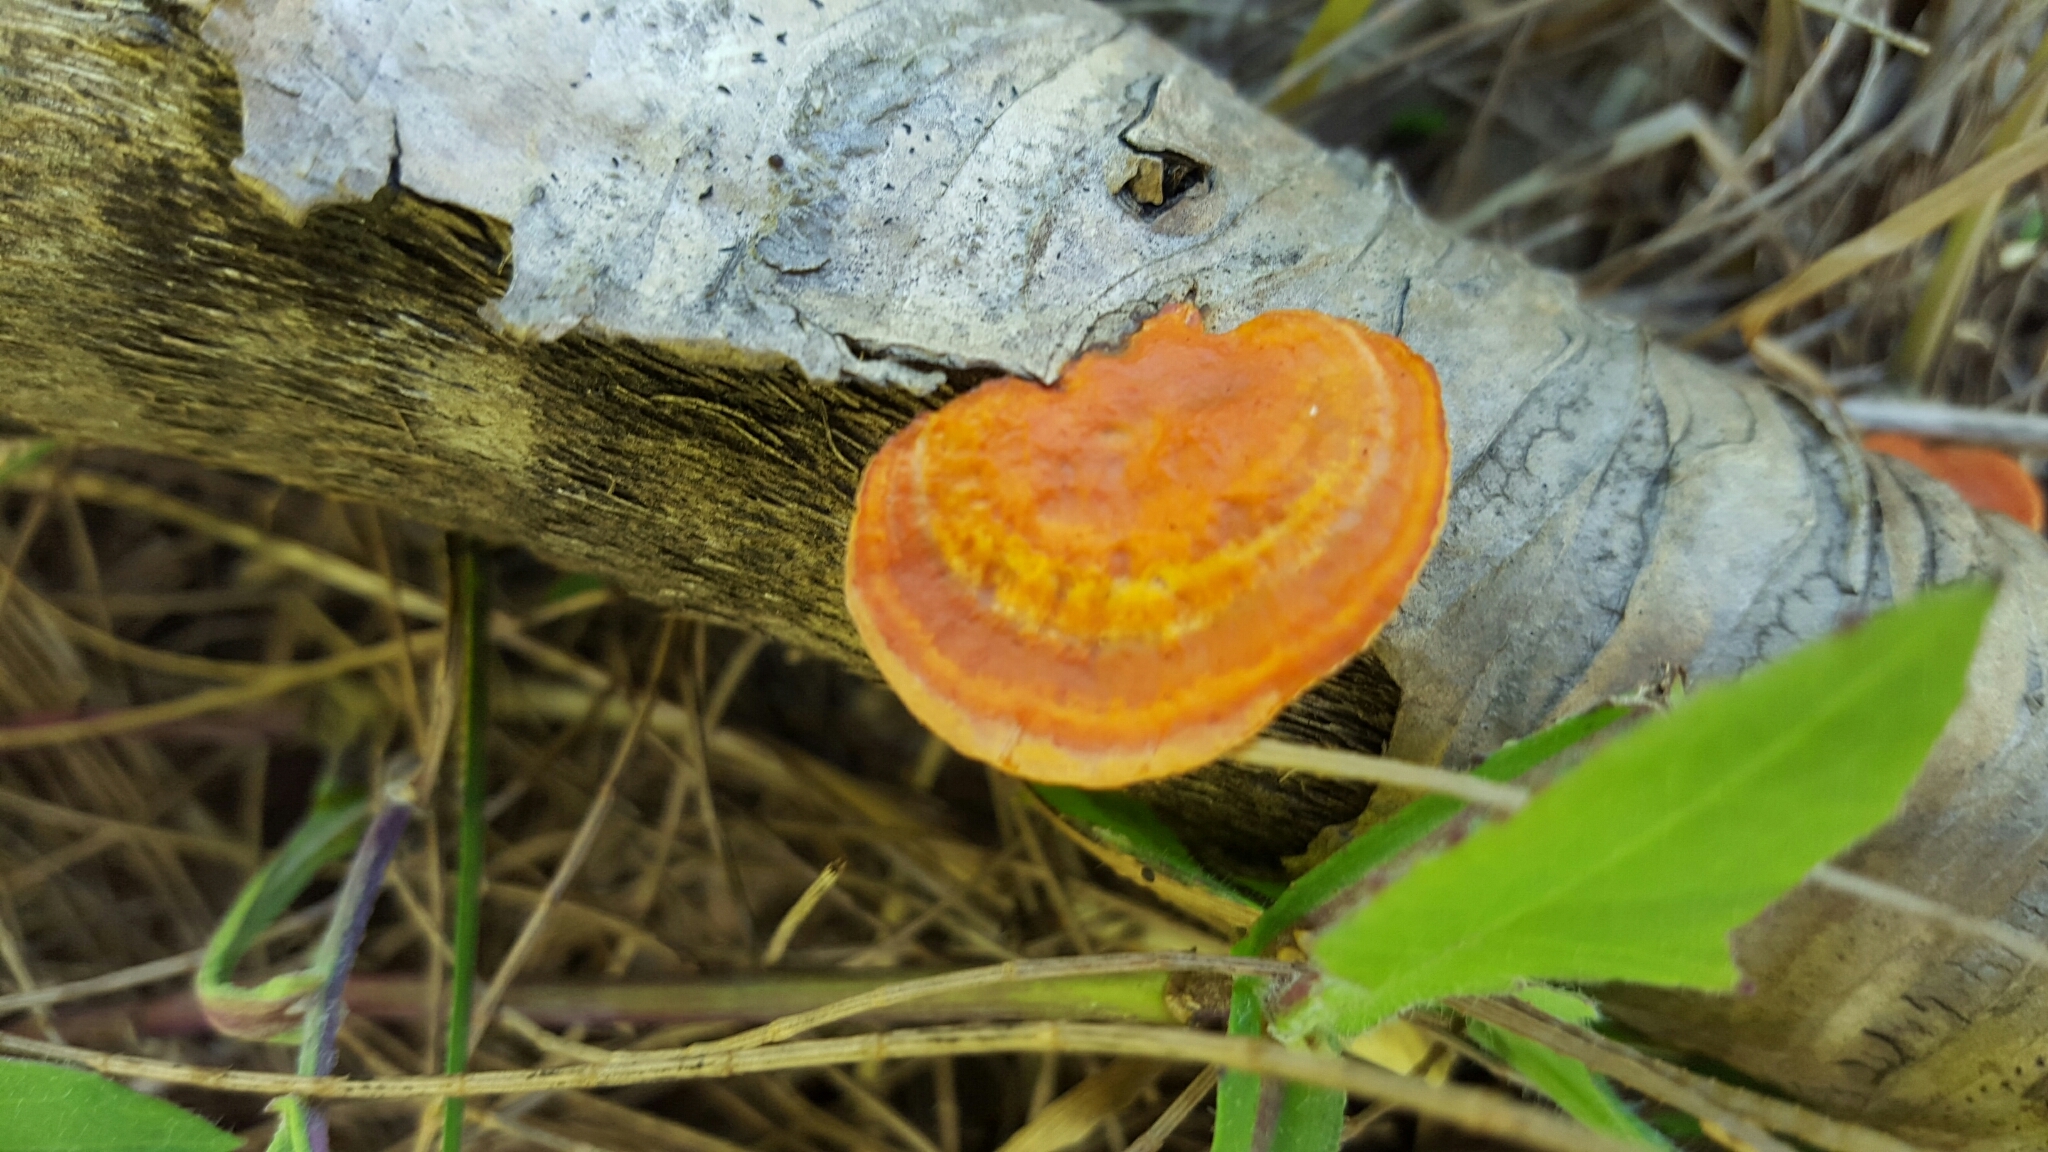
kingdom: Fungi
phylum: Basidiomycota
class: Agaricomycetes
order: Polyporales
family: Polyporaceae
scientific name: Polyporaceae
